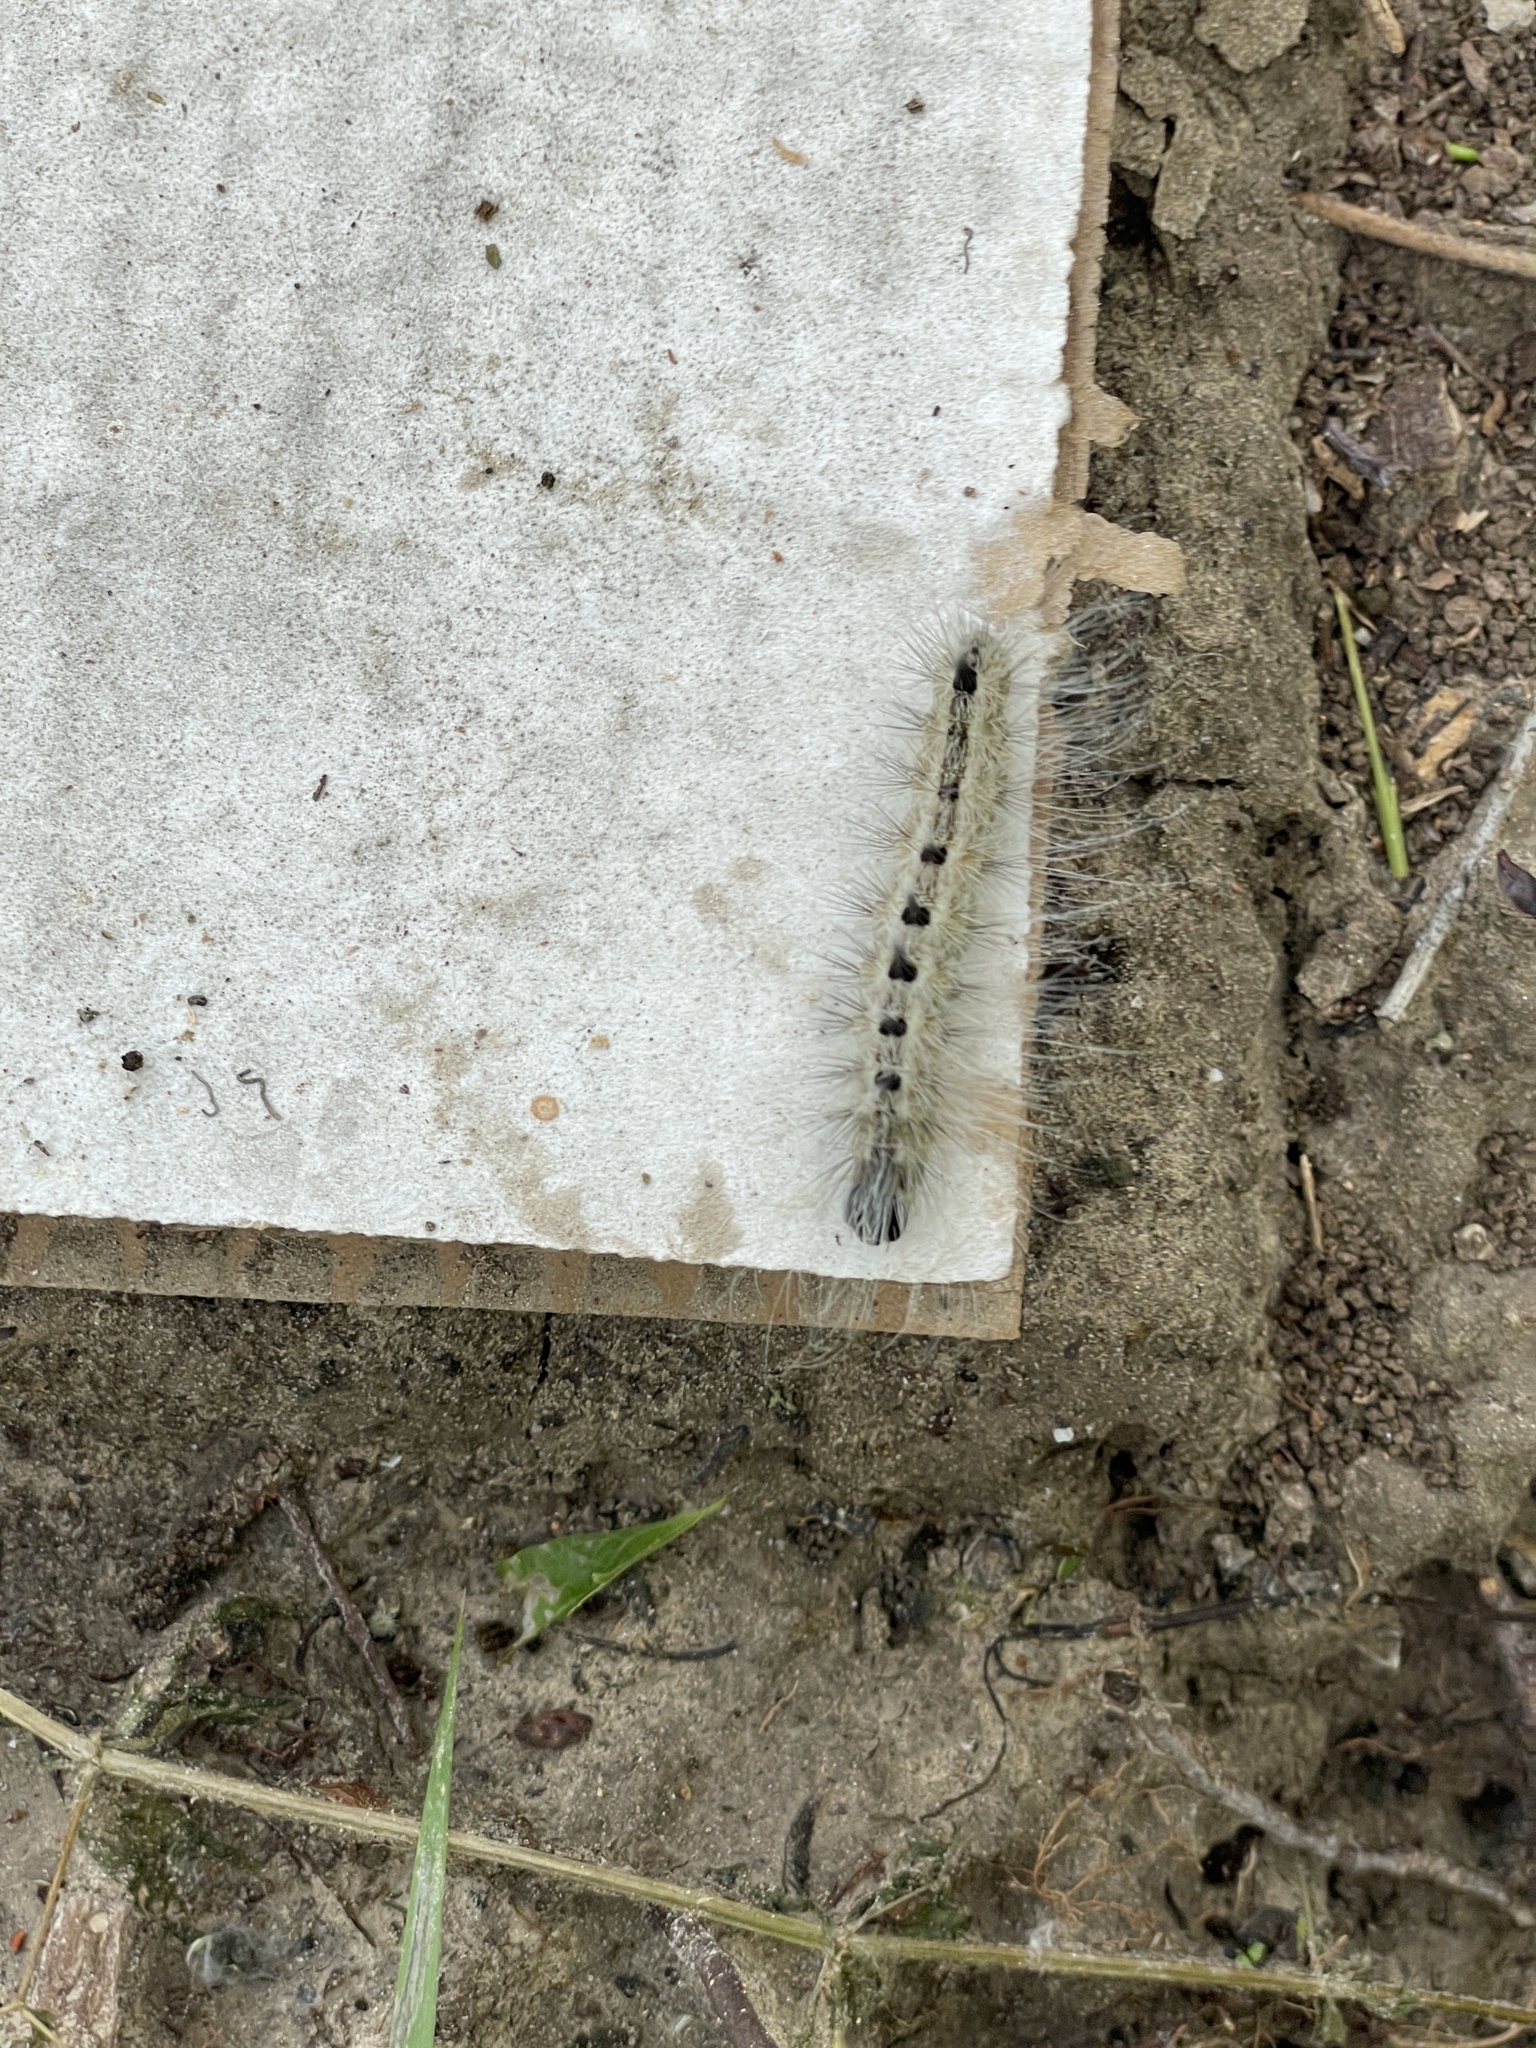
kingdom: Animalia
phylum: Arthropoda
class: Insecta
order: Lepidoptera
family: Noctuidae
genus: Acronicta
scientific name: Acronicta rubricoma
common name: Hackberry dagger
